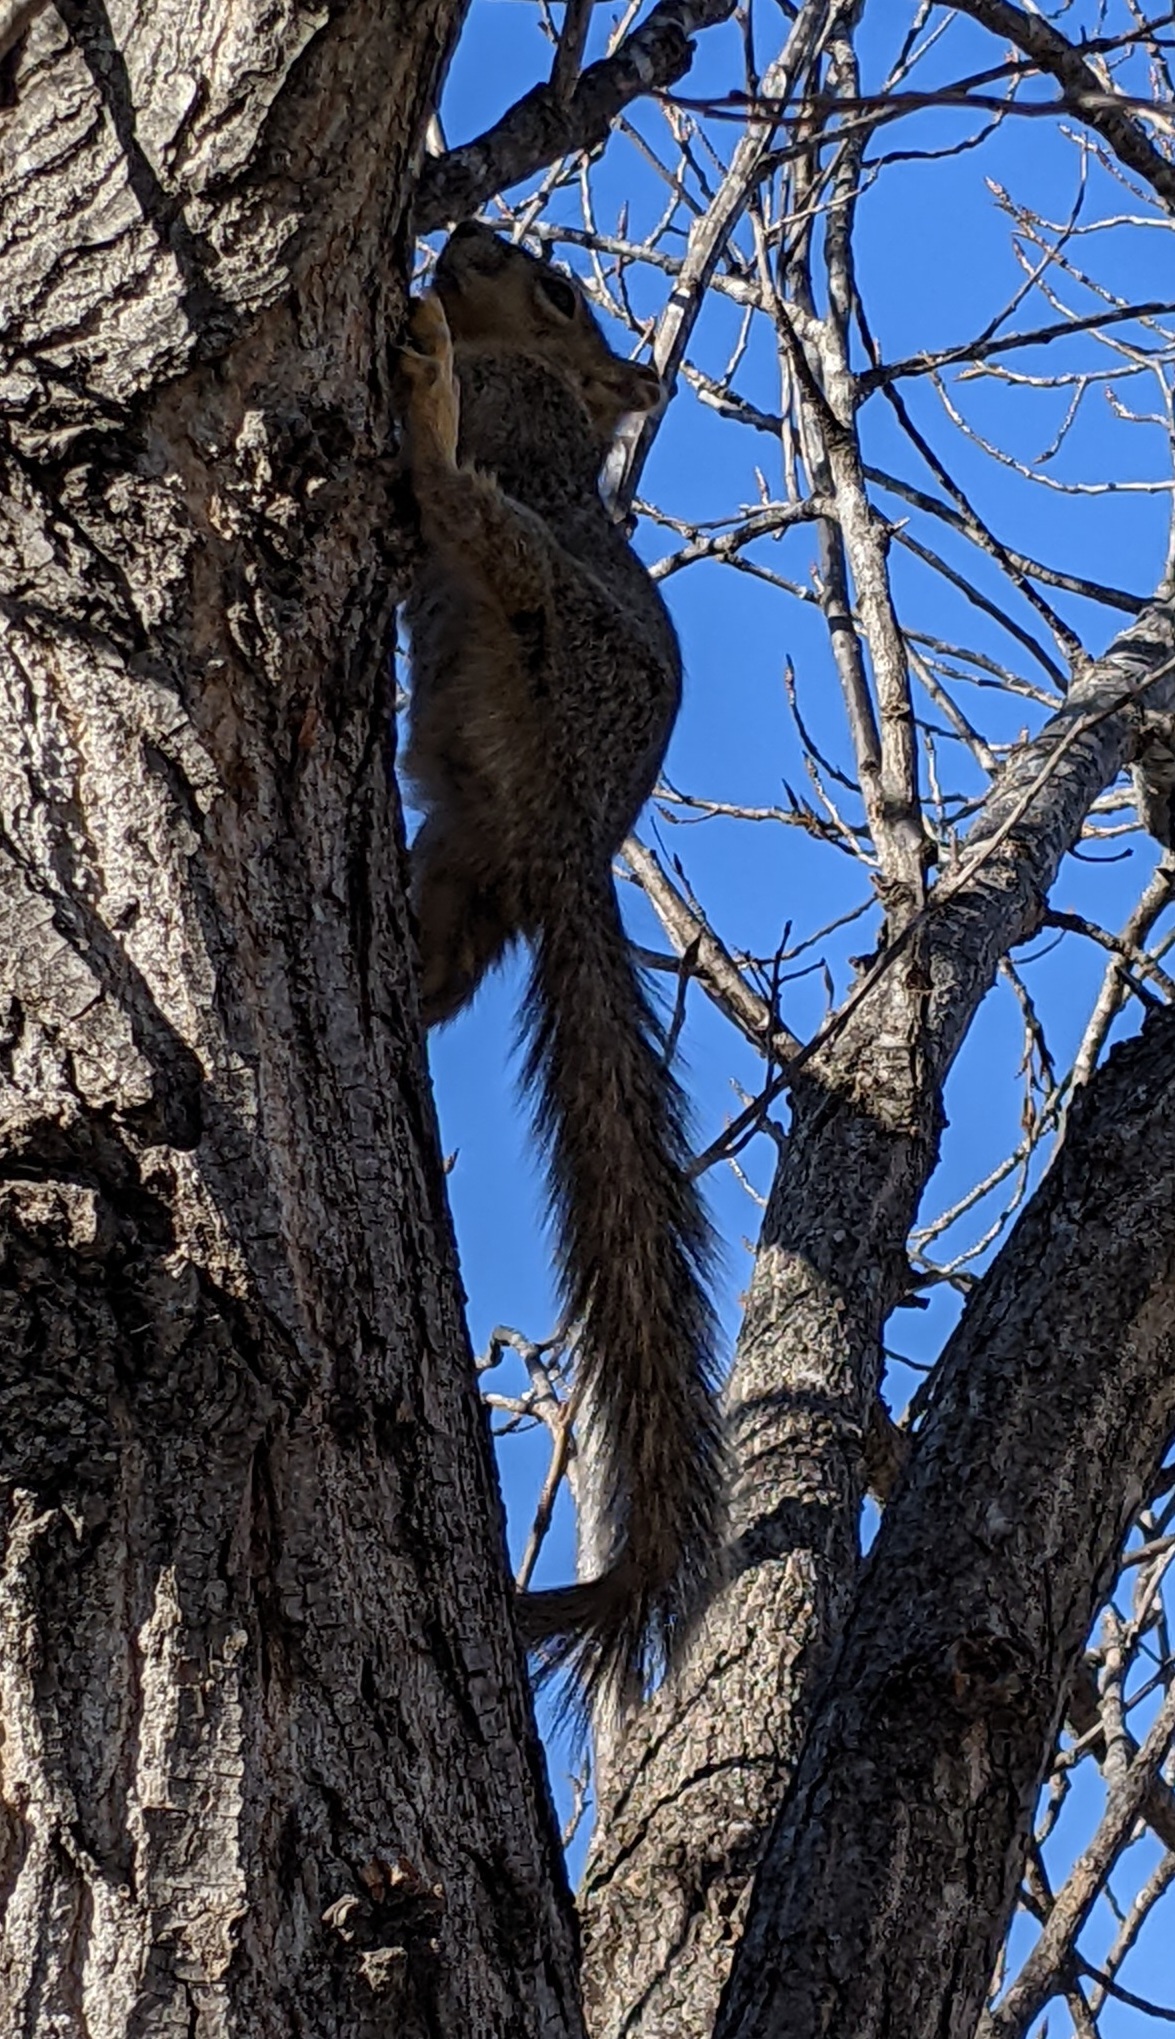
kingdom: Animalia
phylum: Chordata
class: Mammalia
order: Rodentia
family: Sciuridae
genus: Sciurus
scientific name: Sciurus niger
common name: Fox squirrel
